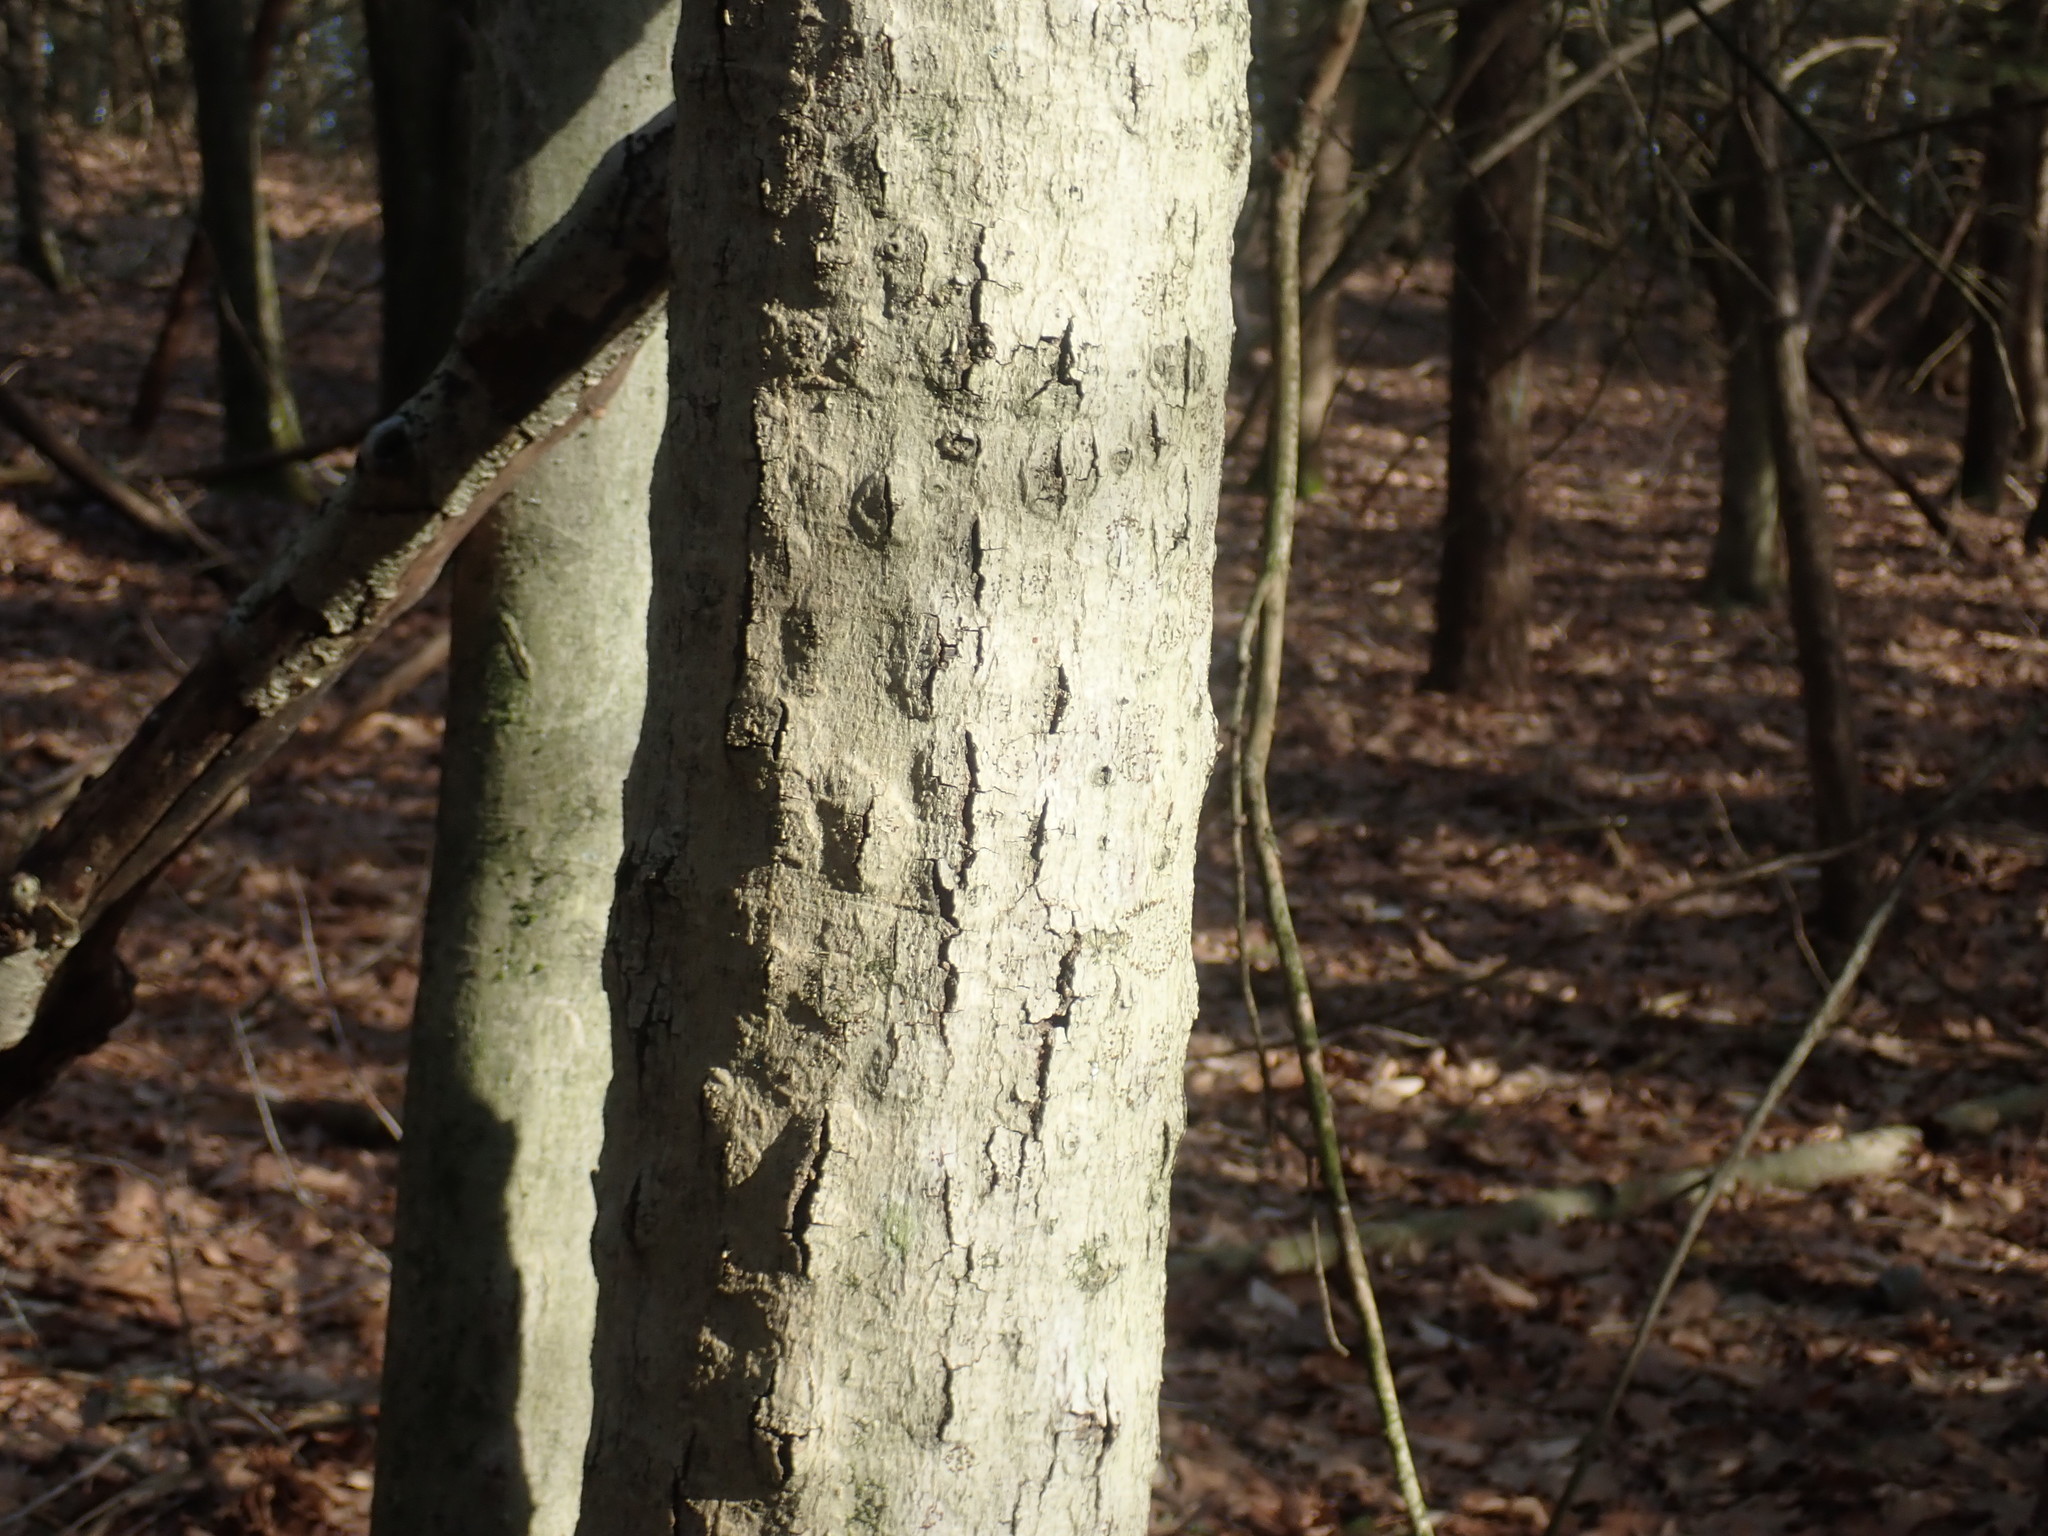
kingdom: Fungi
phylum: Ascomycota
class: Sordariomycetes
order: Hypocreales
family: Nectriaceae
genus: Neonectria
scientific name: Neonectria faginata
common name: Beech bark canker
